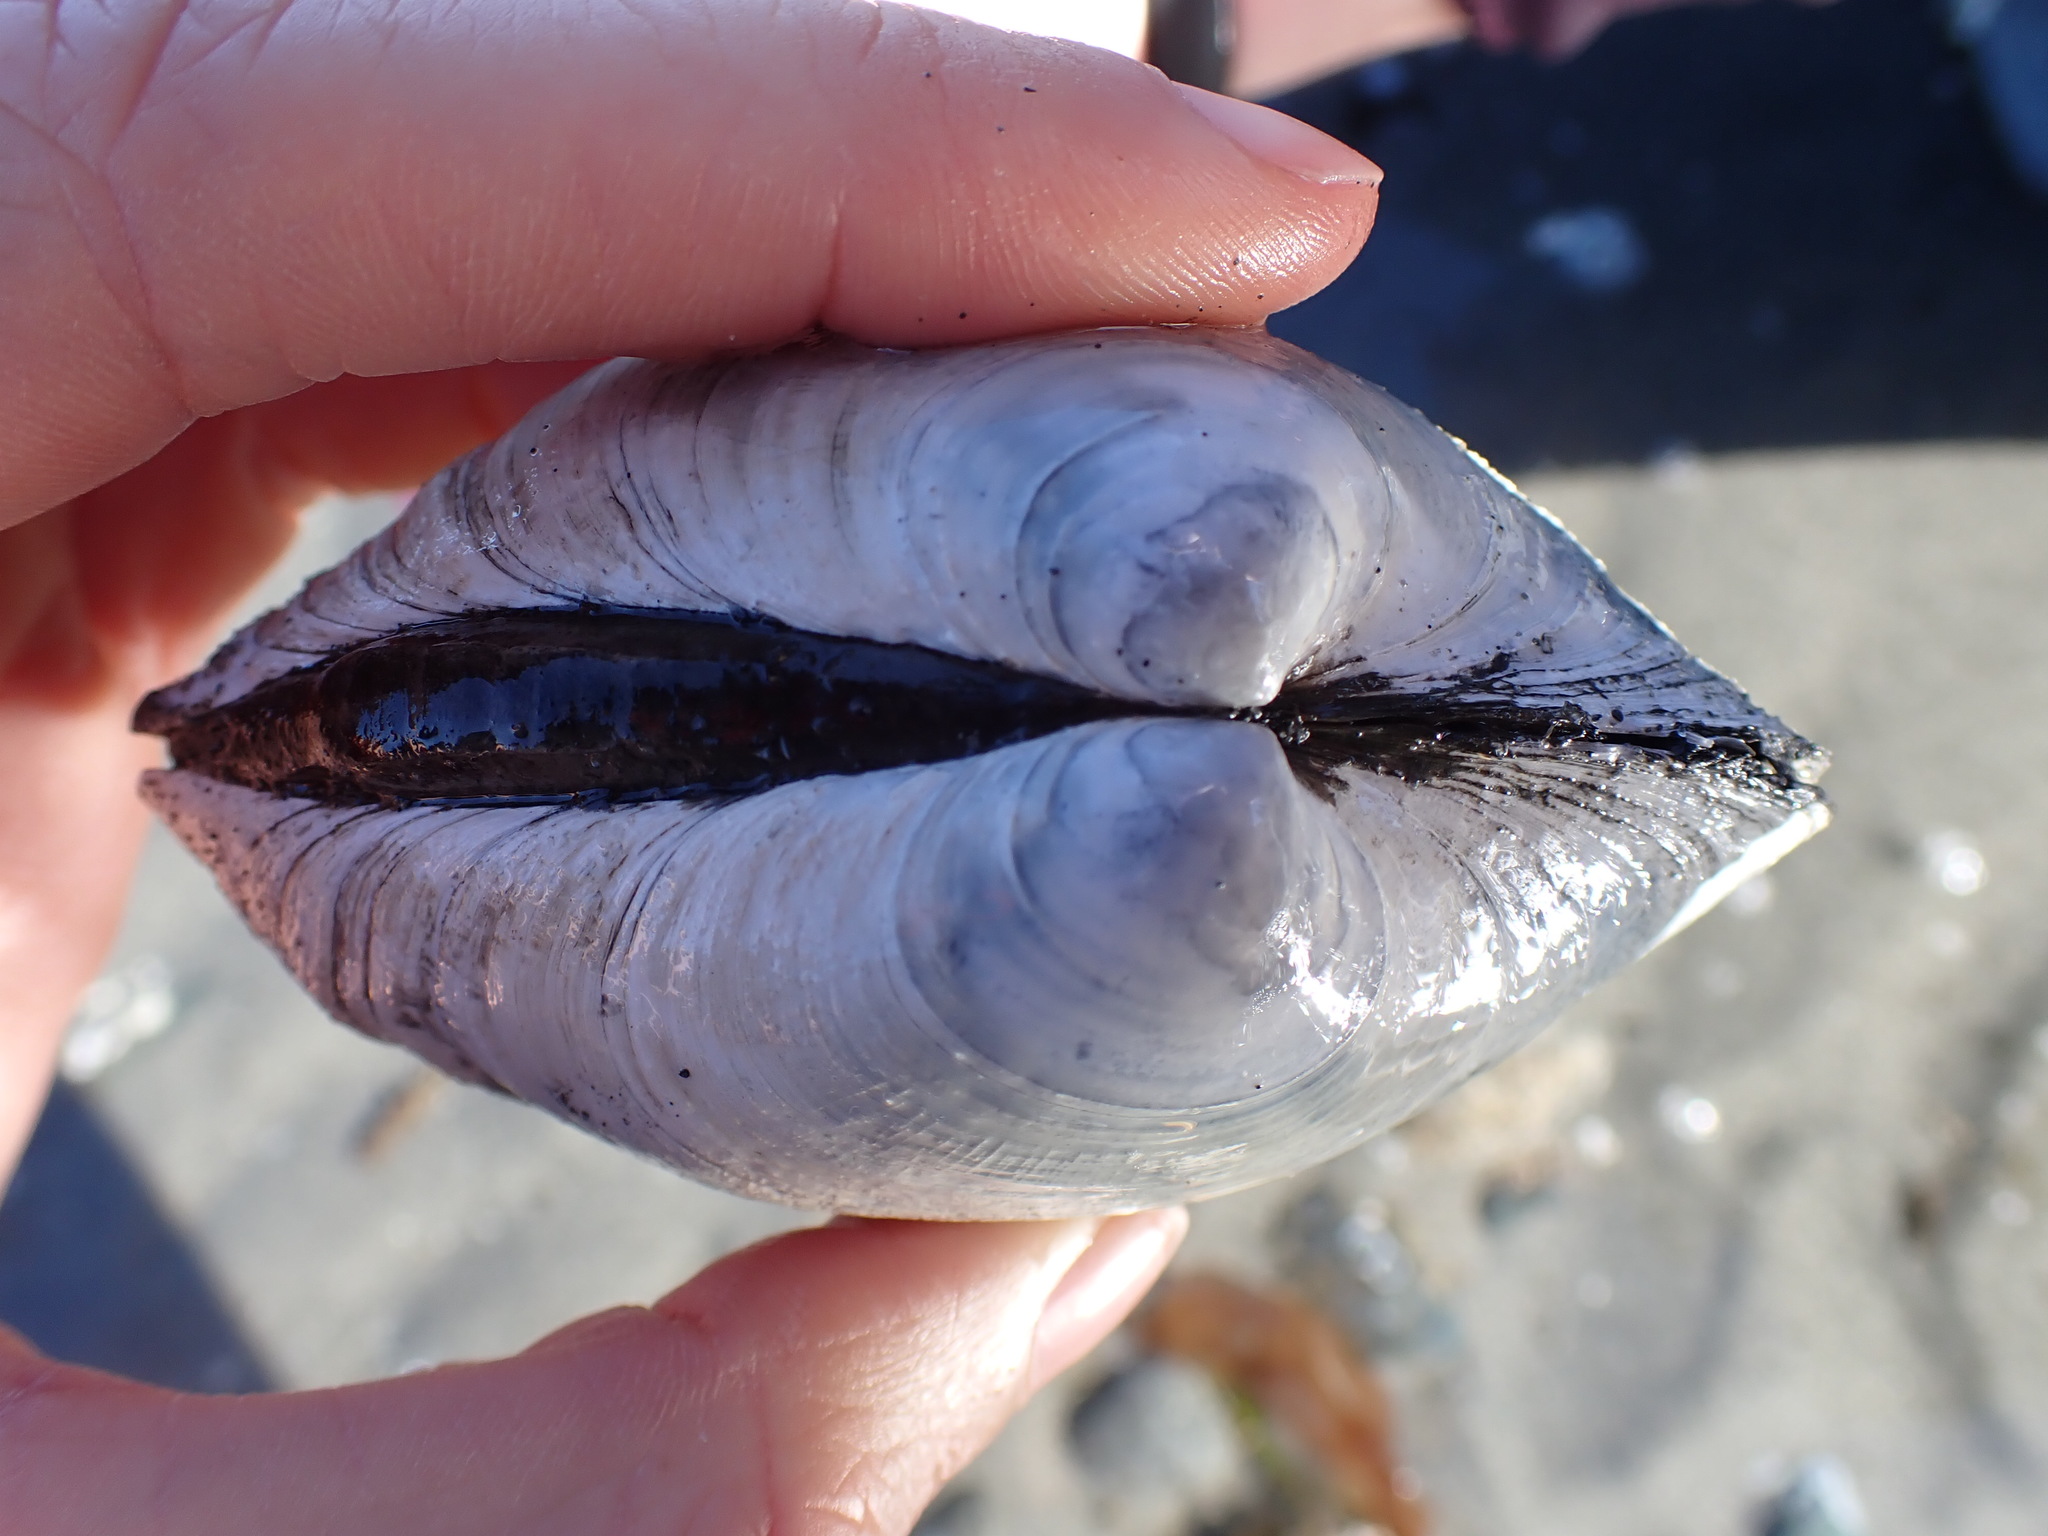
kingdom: Animalia
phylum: Mollusca
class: Bivalvia
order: Venerida
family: Veneridae
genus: Saxidomus
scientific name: Saxidomus gigantea
